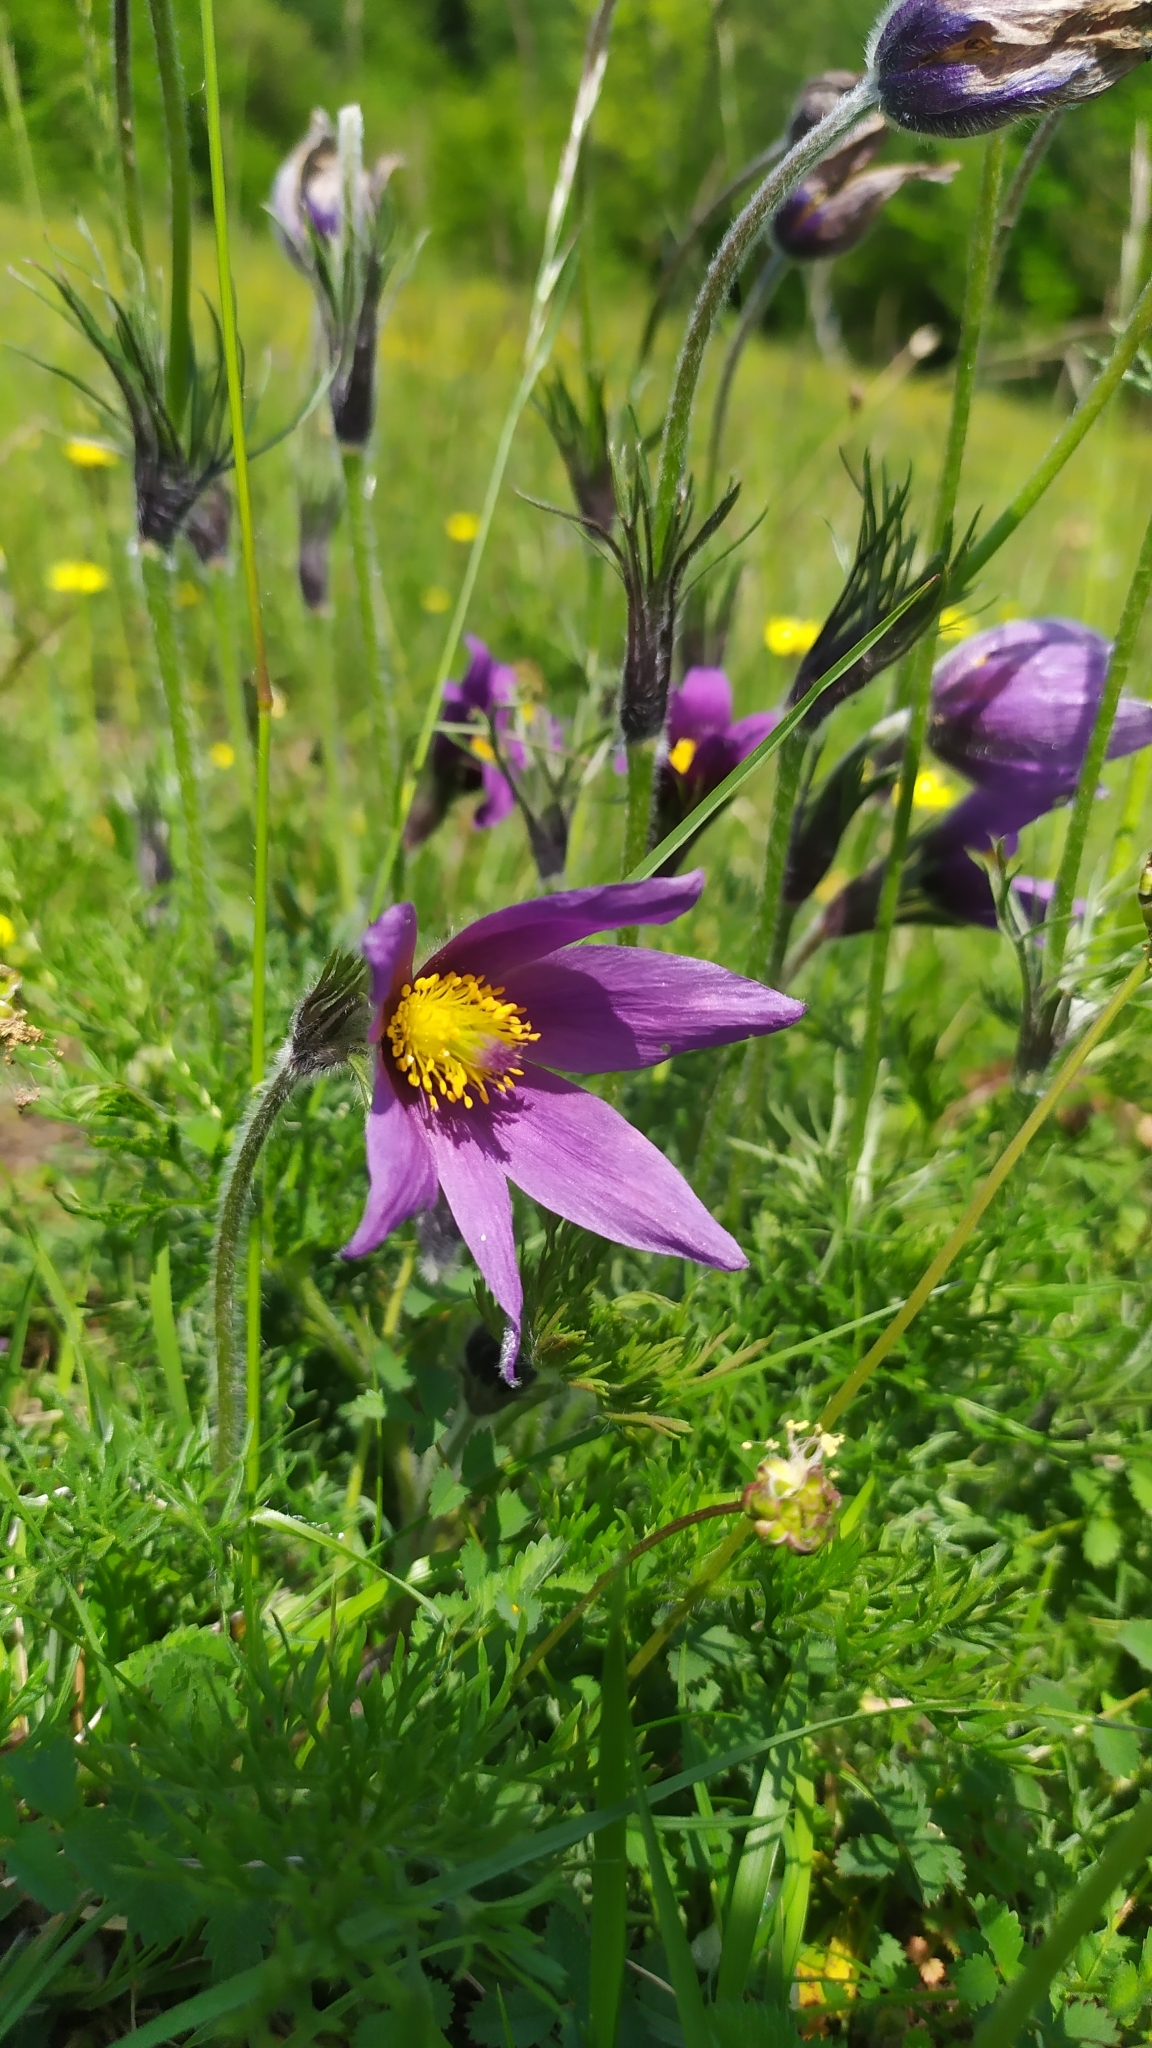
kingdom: Plantae
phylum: Tracheophyta
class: Magnoliopsida
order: Ranunculales
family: Ranunculaceae
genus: Pulsatilla
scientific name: Pulsatilla vulgaris
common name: Pasqueflower
